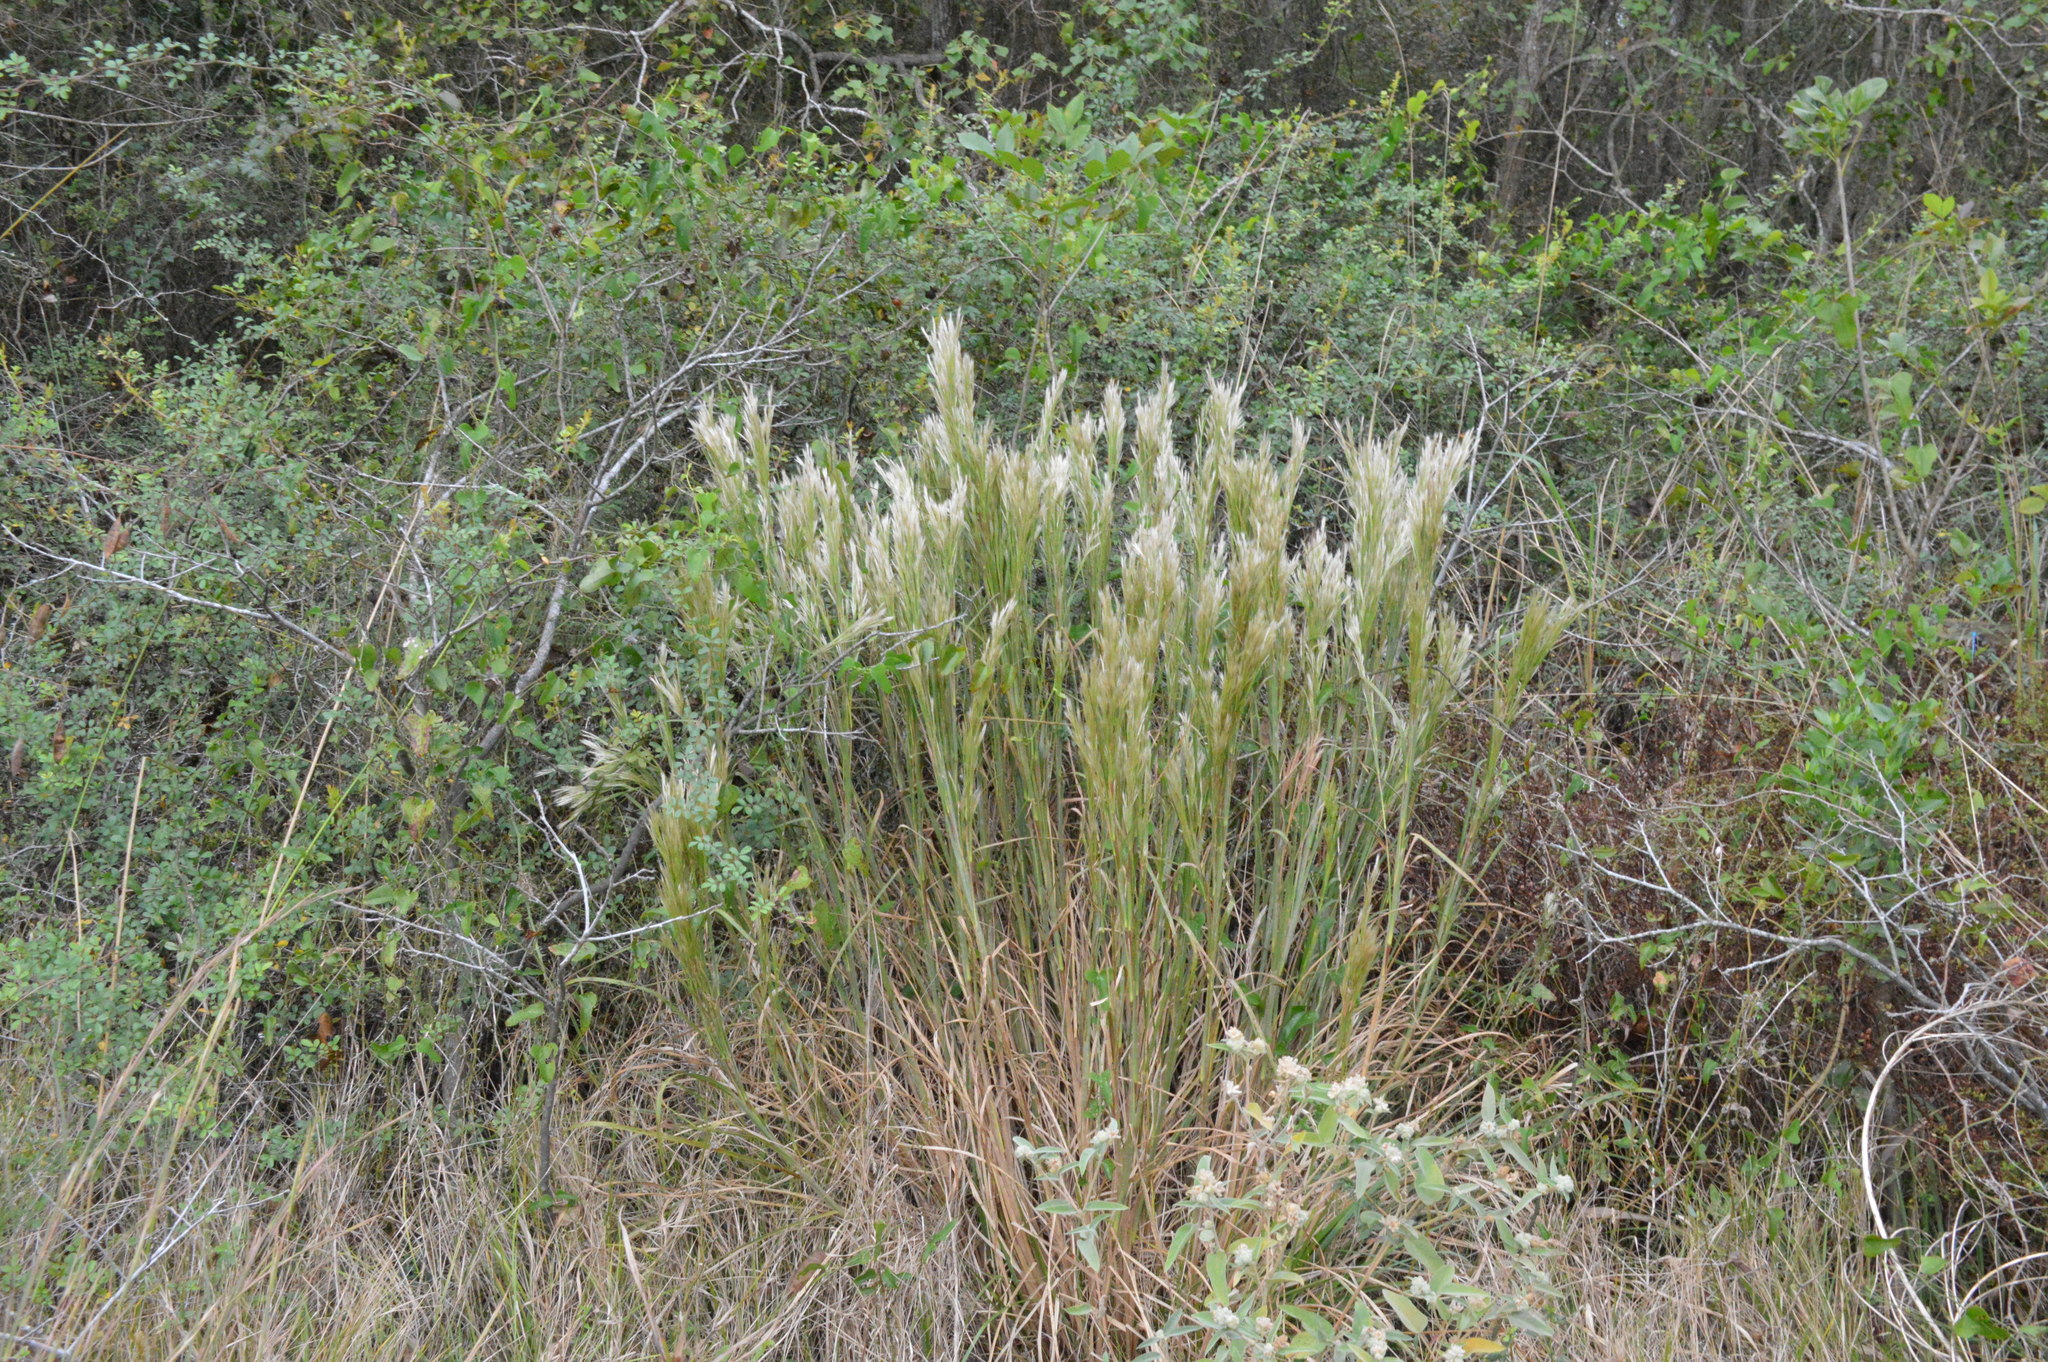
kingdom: Plantae
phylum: Tracheophyta
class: Liliopsida
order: Poales
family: Poaceae
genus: Andropogon
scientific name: Andropogon tenuispatheus
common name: Bushy bluestem
